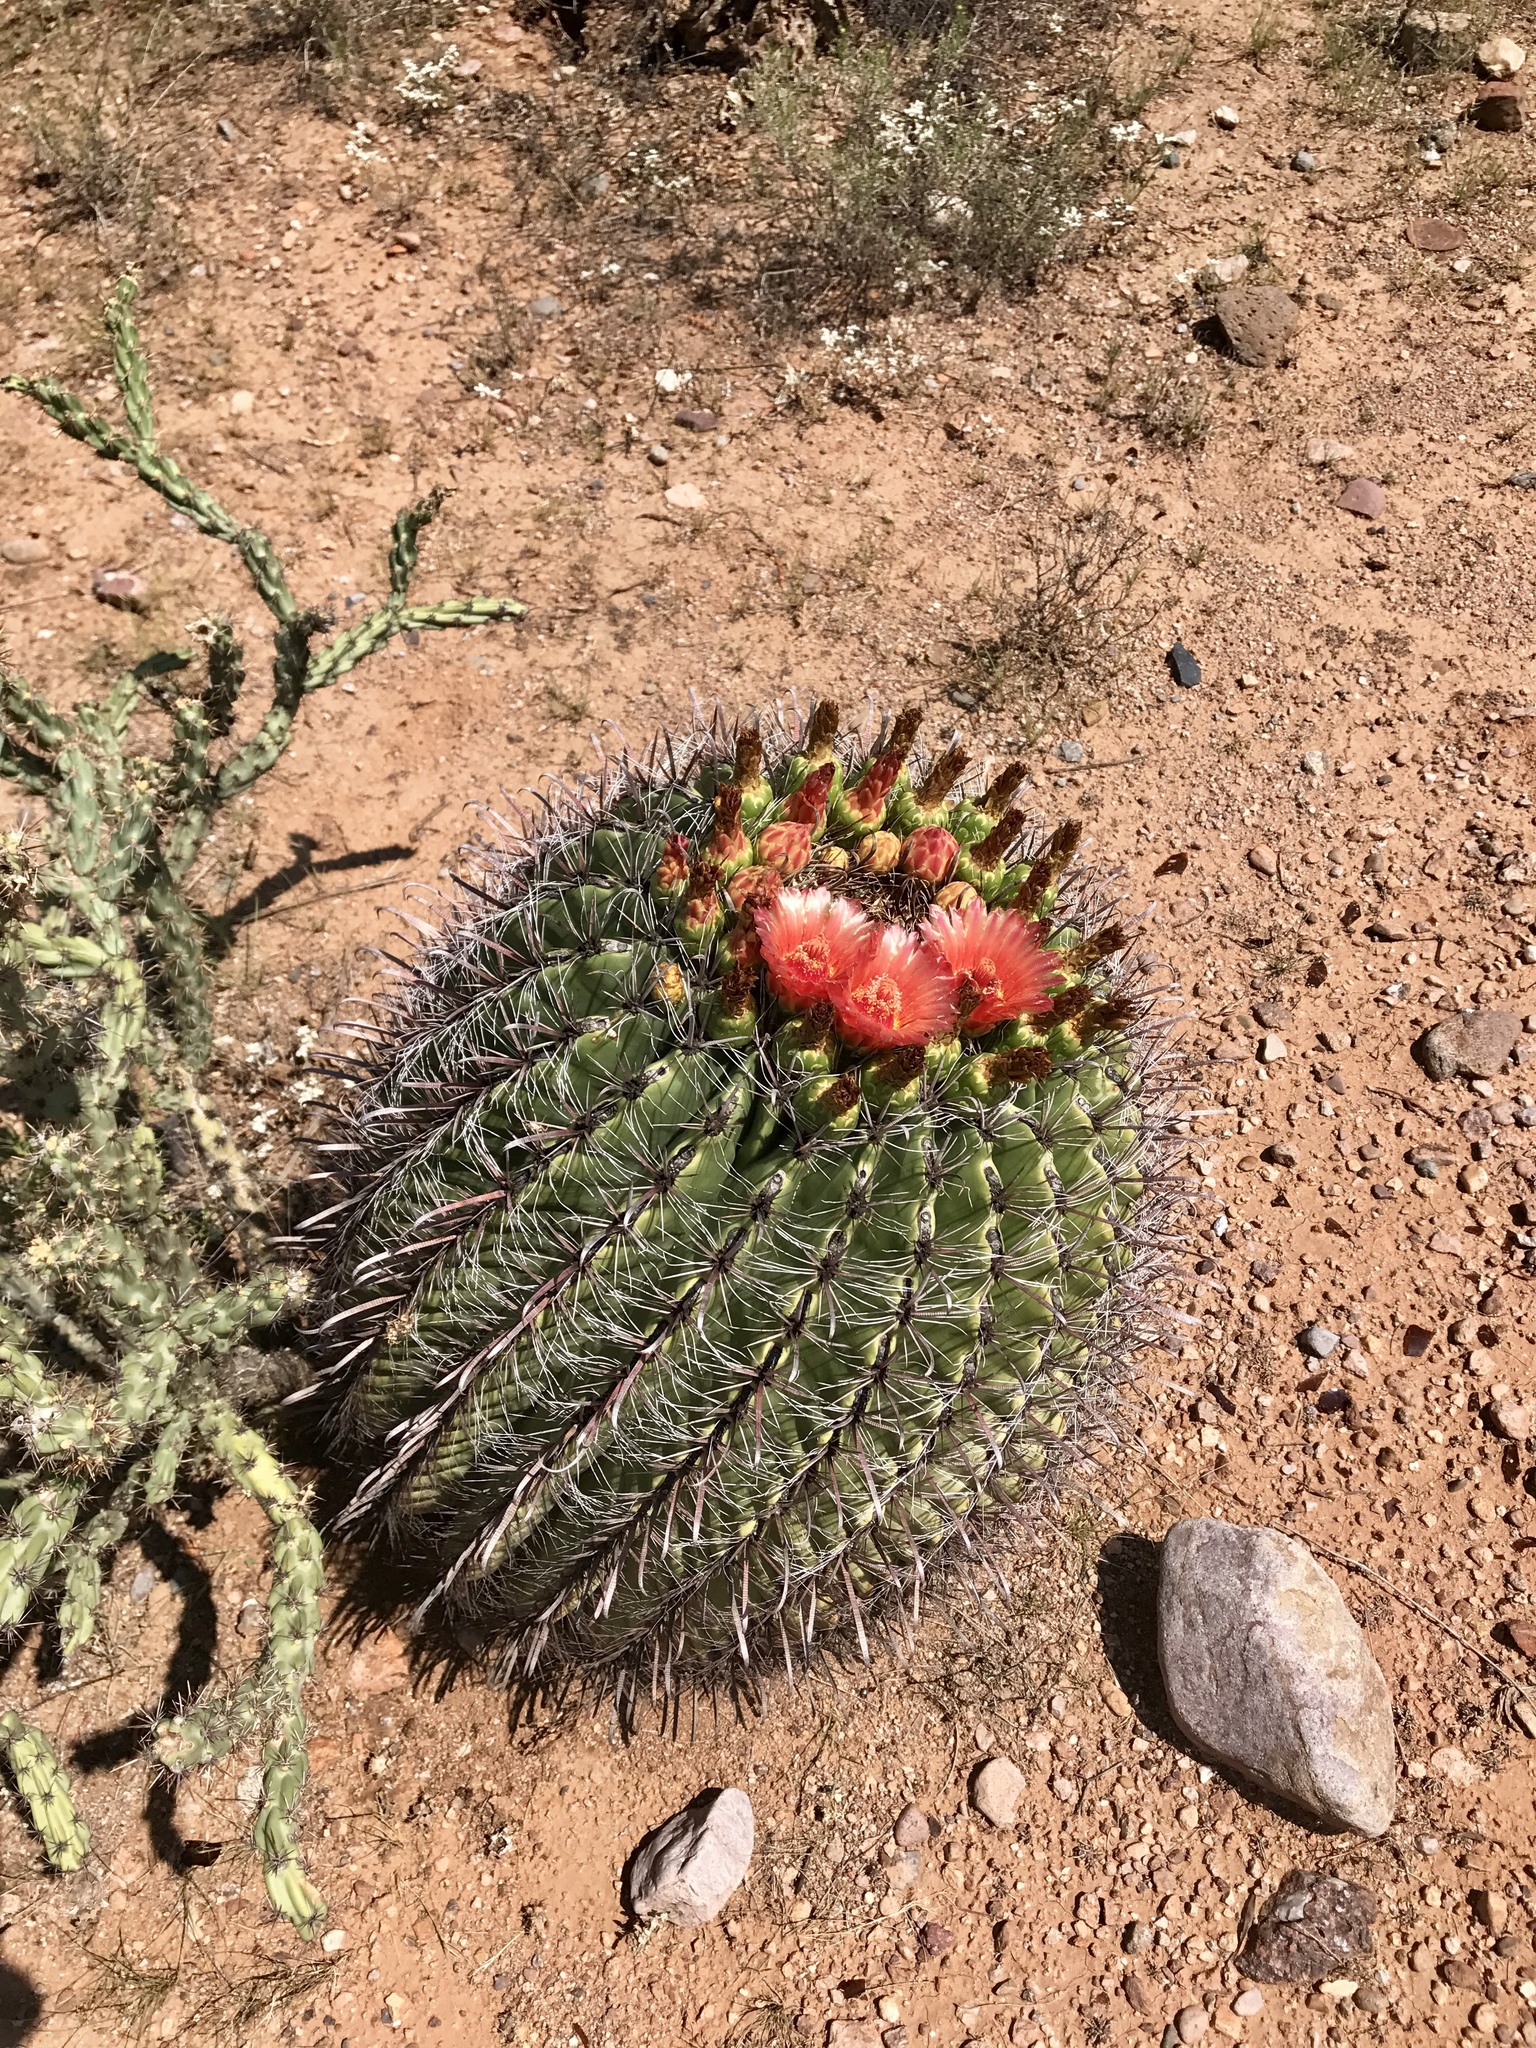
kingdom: Plantae
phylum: Tracheophyta
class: Magnoliopsida
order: Caryophyllales
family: Cactaceae
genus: Ferocactus
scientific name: Ferocactus wislizeni
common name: Candy barrel cactus
